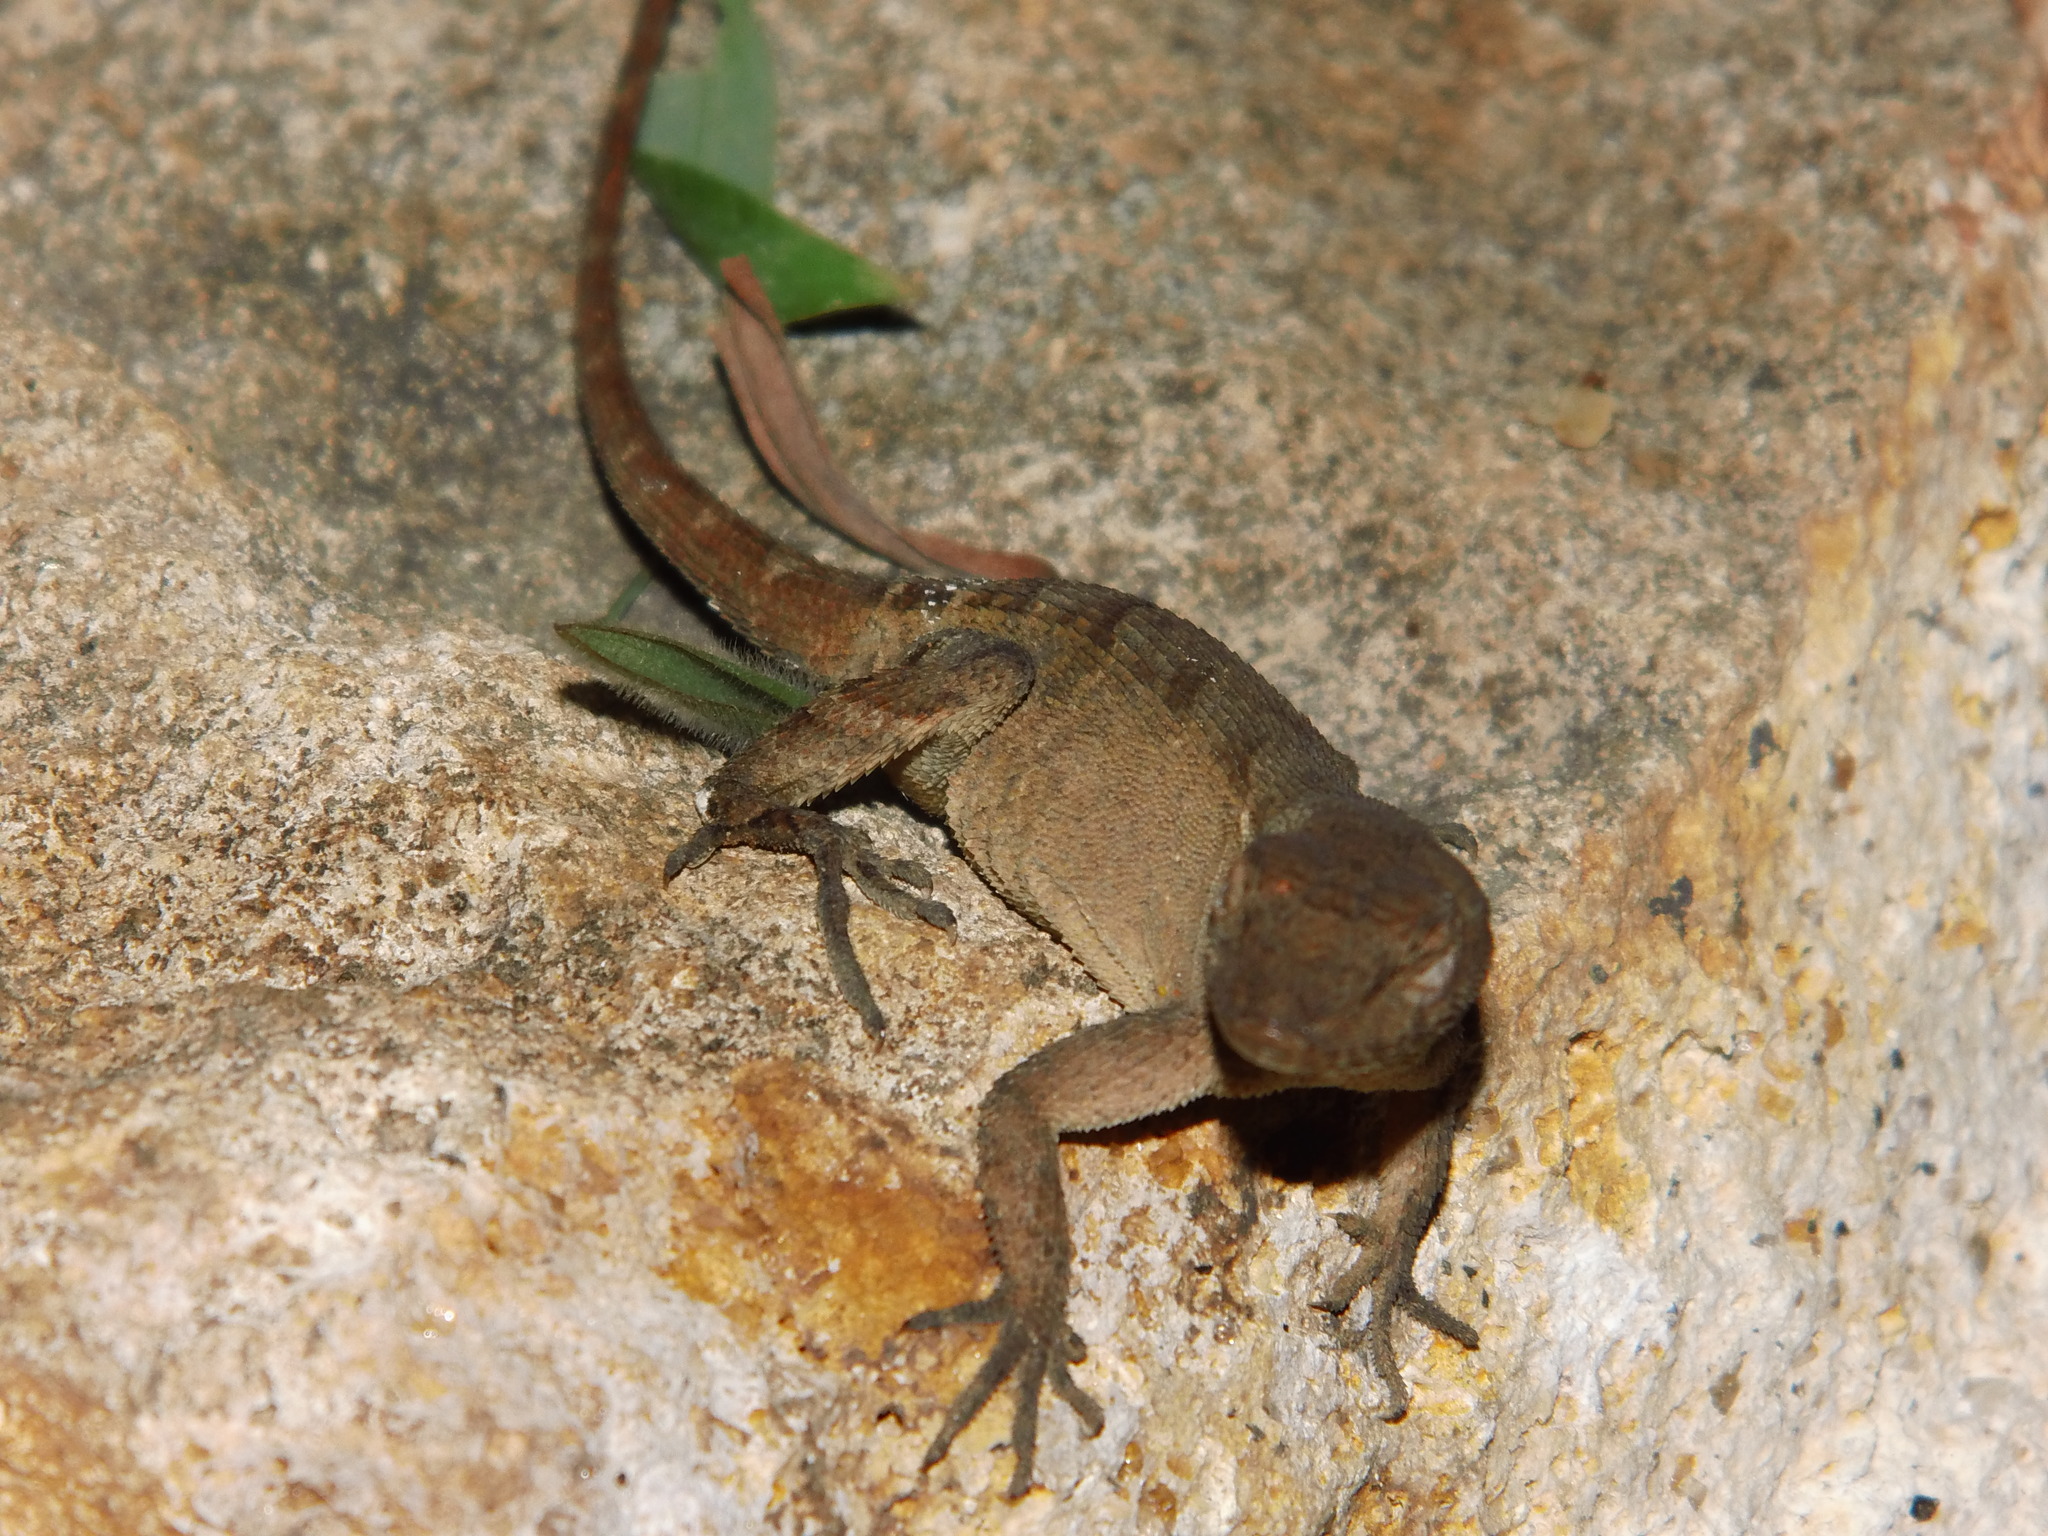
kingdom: Animalia
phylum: Chordata
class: Squamata
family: Dactyloidae
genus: Anolis
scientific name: Anolis mccraniei
